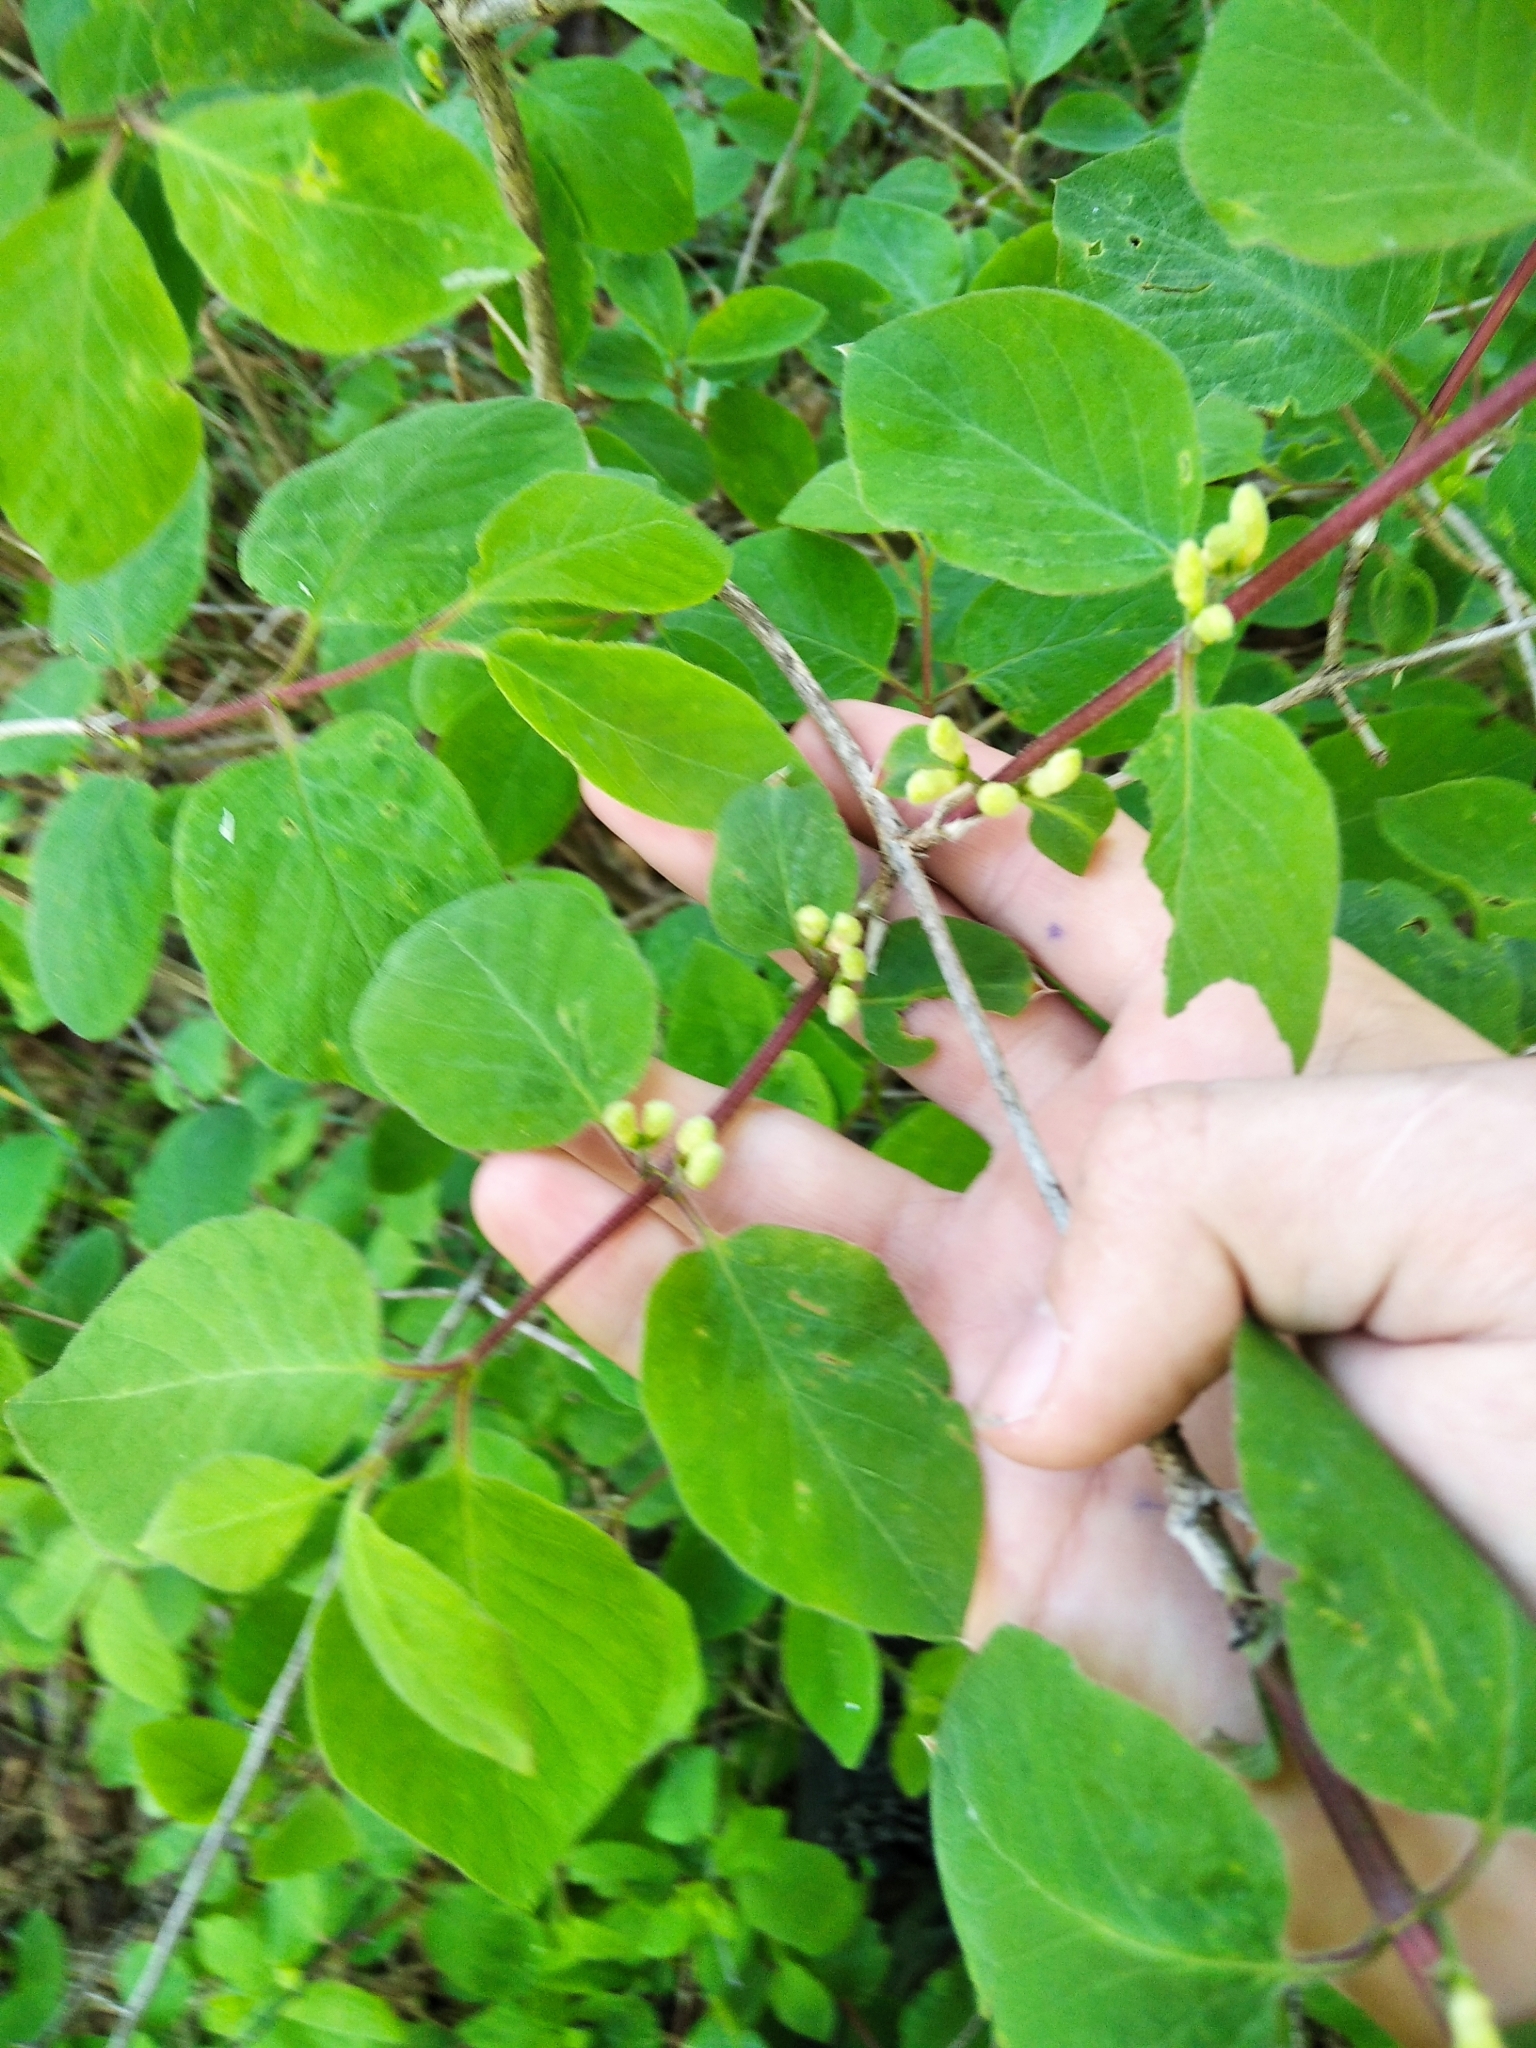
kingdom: Plantae
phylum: Tracheophyta
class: Magnoliopsida
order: Dipsacales
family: Caprifoliaceae
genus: Lonicera
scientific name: Lonicera xylosteum
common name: Fly honeysuckle
